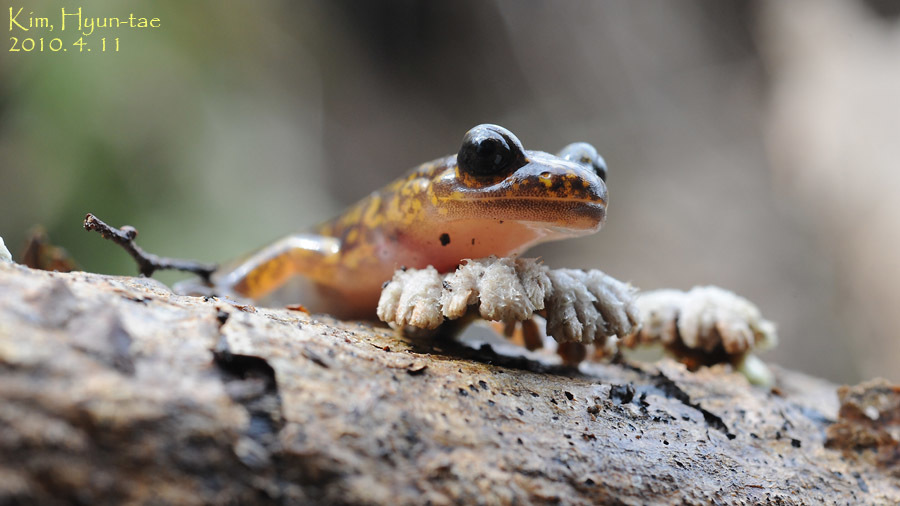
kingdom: Animalia
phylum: Chordata
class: Amphibia
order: Caudata
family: Hynobiidae
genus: Onychodactylus
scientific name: Onychodactylus koreanus
